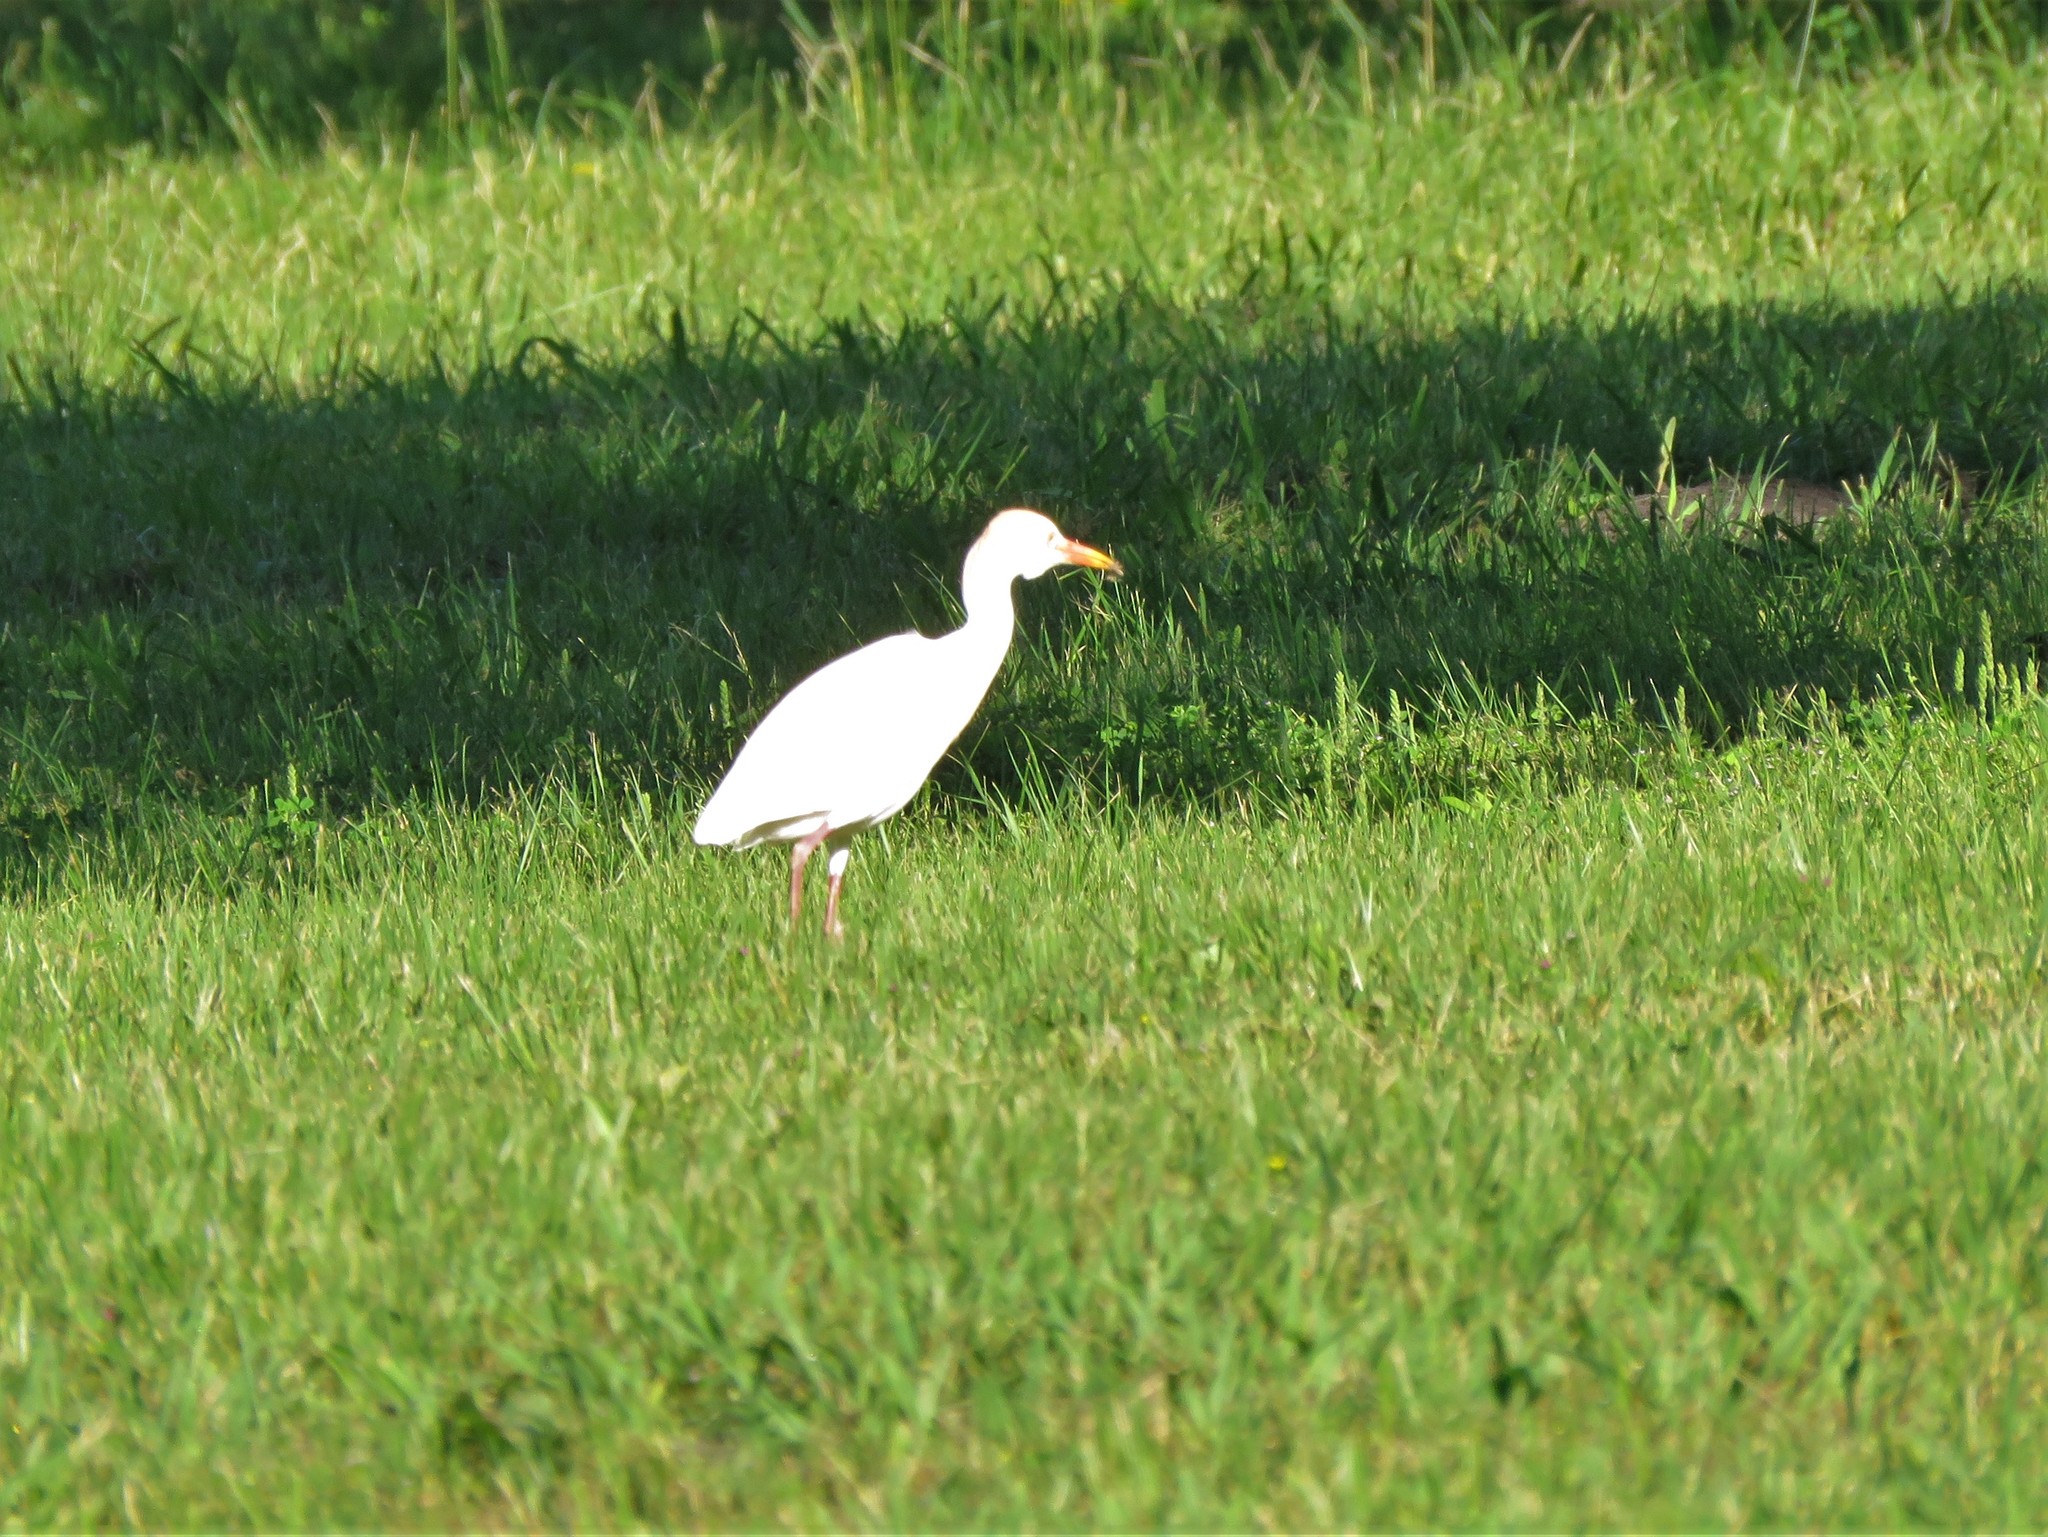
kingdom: Animalia
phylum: Chordata
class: Aves
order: Pelecaniformes
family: Ardeidae
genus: Bubulcus
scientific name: Bubulcus ibis
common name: Cattle egret
